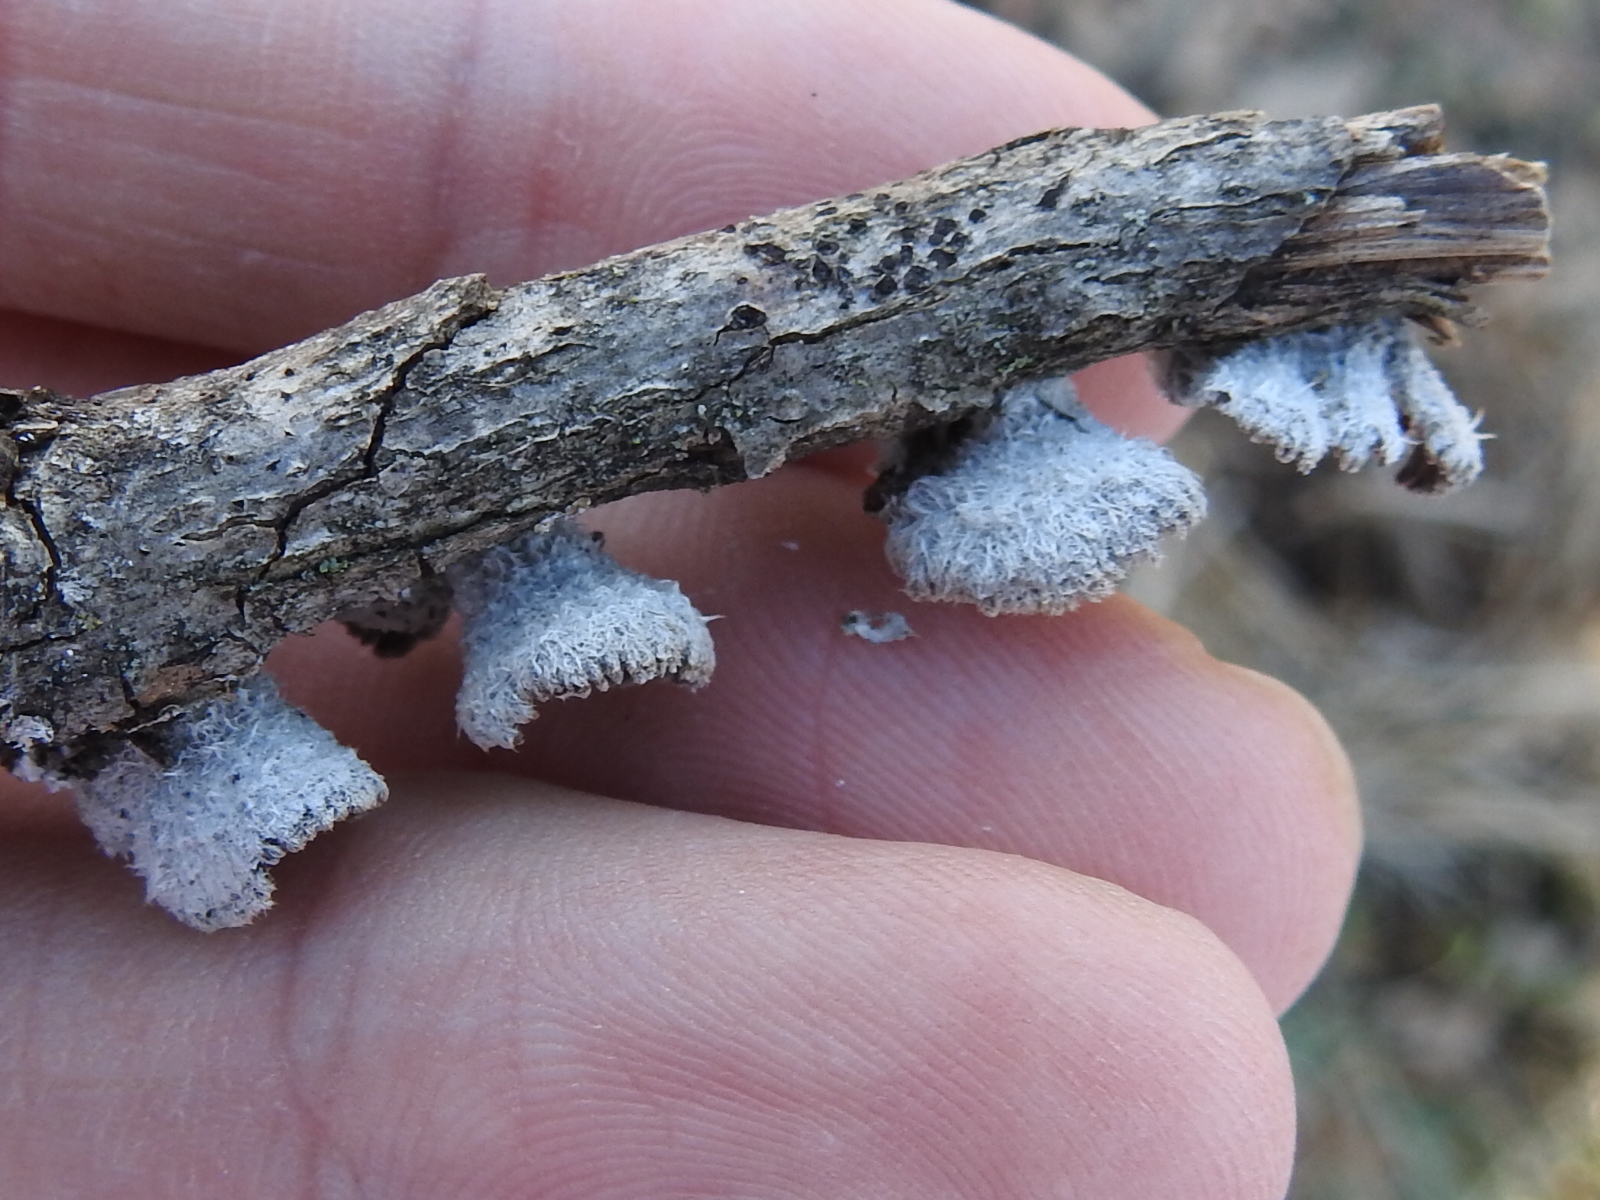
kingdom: Fungi
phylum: Basidiomycota
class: Agaricomycetes
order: Agaricales
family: Schizophyllaceae
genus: Schizophyllum
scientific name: Schizophyllum commune
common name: Common porecrust
